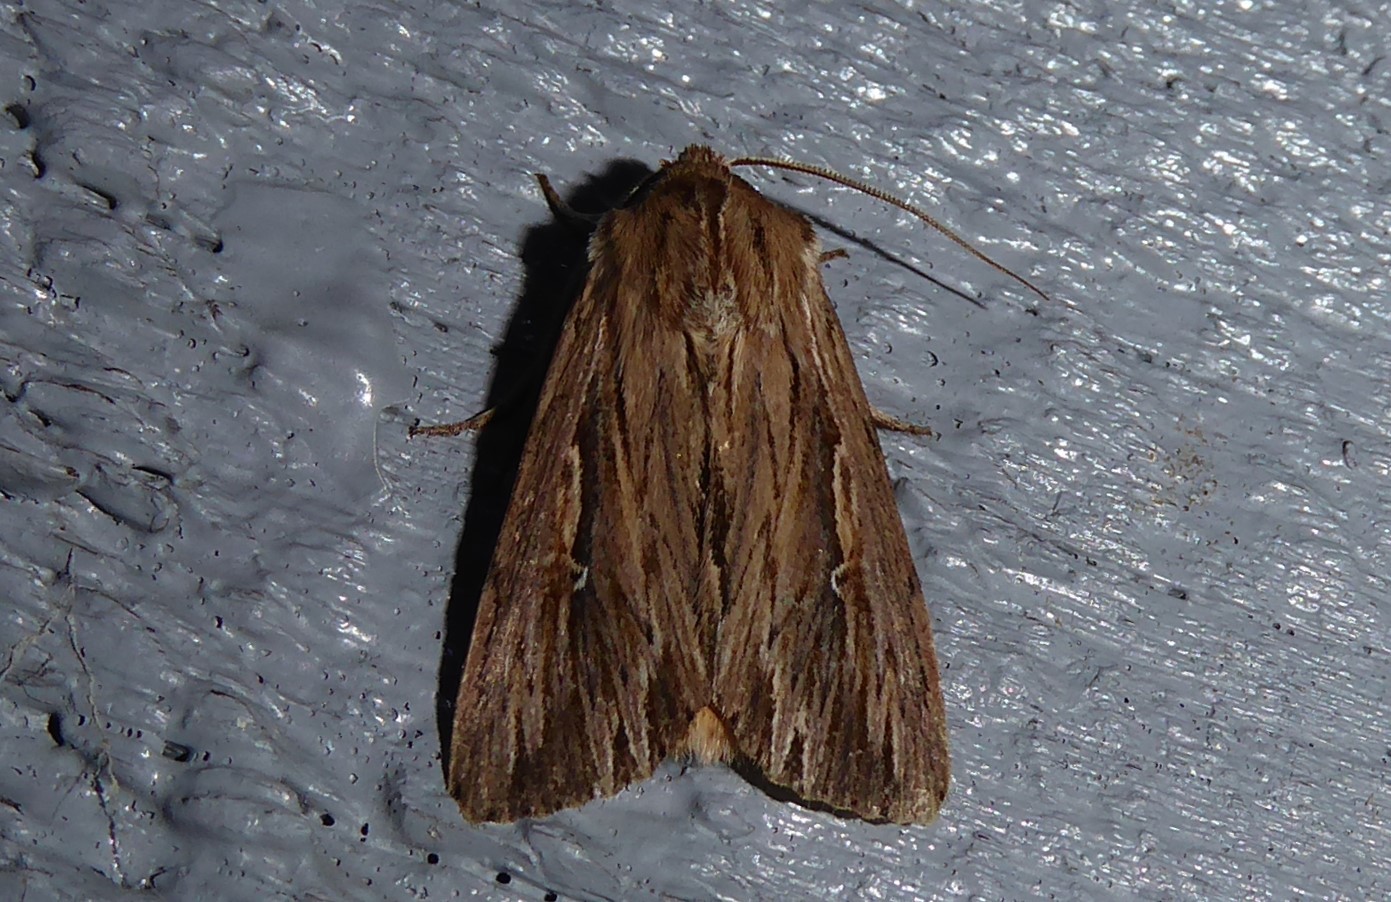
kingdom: Animalia
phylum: Arthropoda
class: Insecta
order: Lepidoptera
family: Noctuidae
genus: Persectania
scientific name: Persectania aversa
